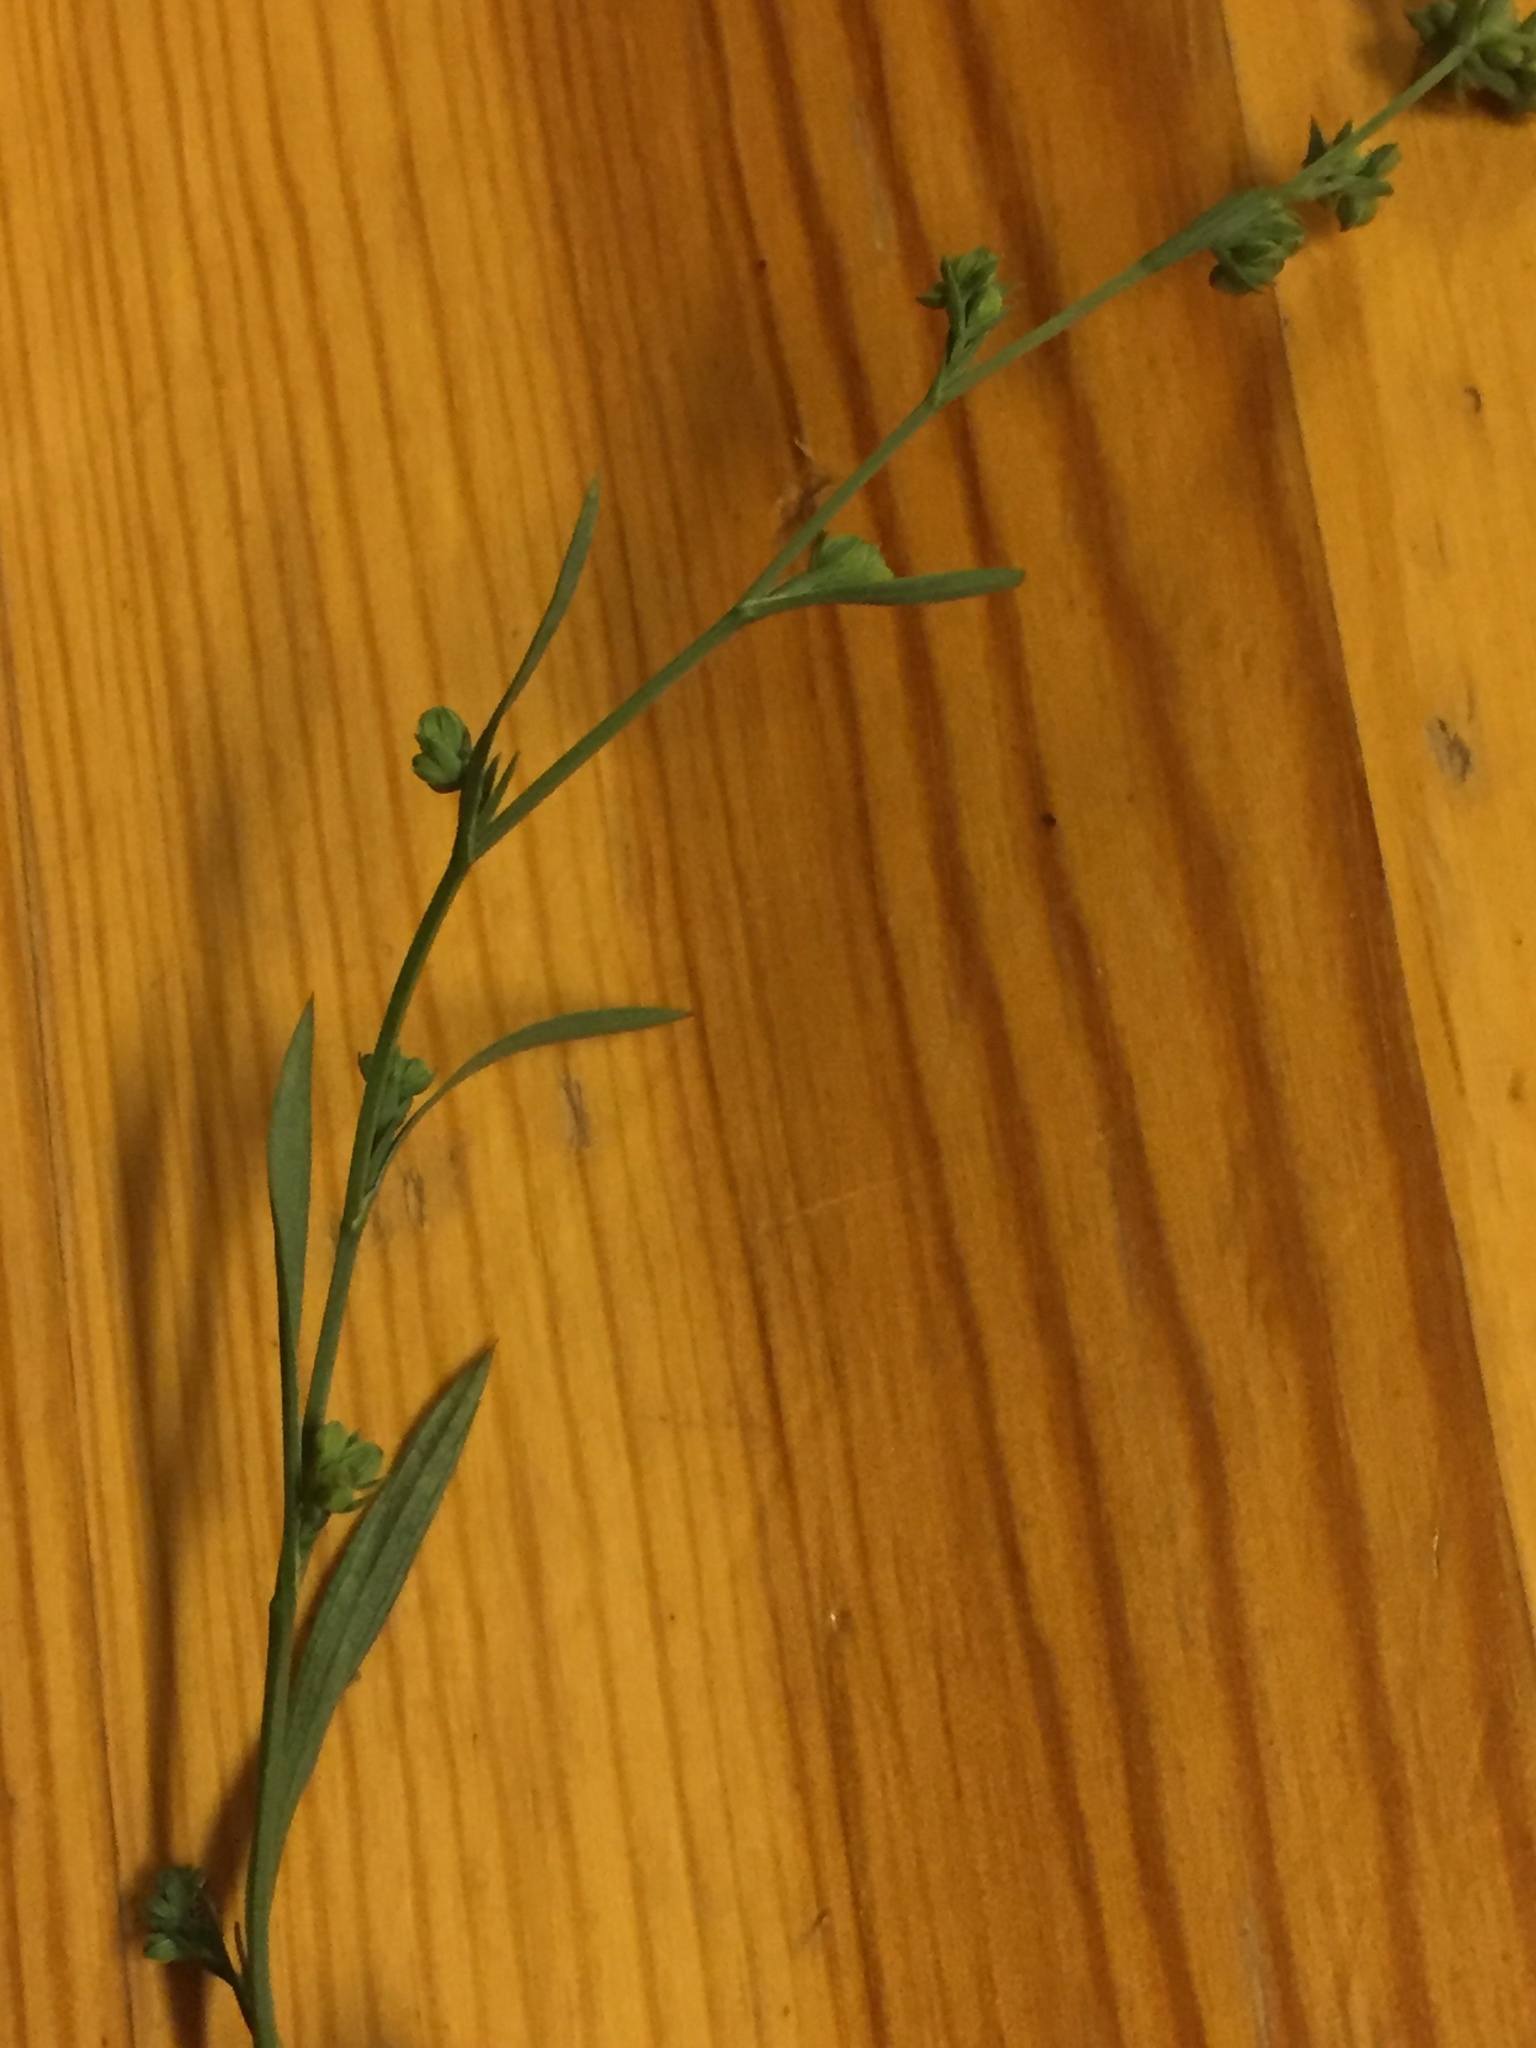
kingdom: Plantae
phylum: Tracheophyta
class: Magnoliopsida
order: Apiales
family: Apiaceae
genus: Bupleurum
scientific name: Bupleurum tenuissimum
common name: Slender hare's-ear
